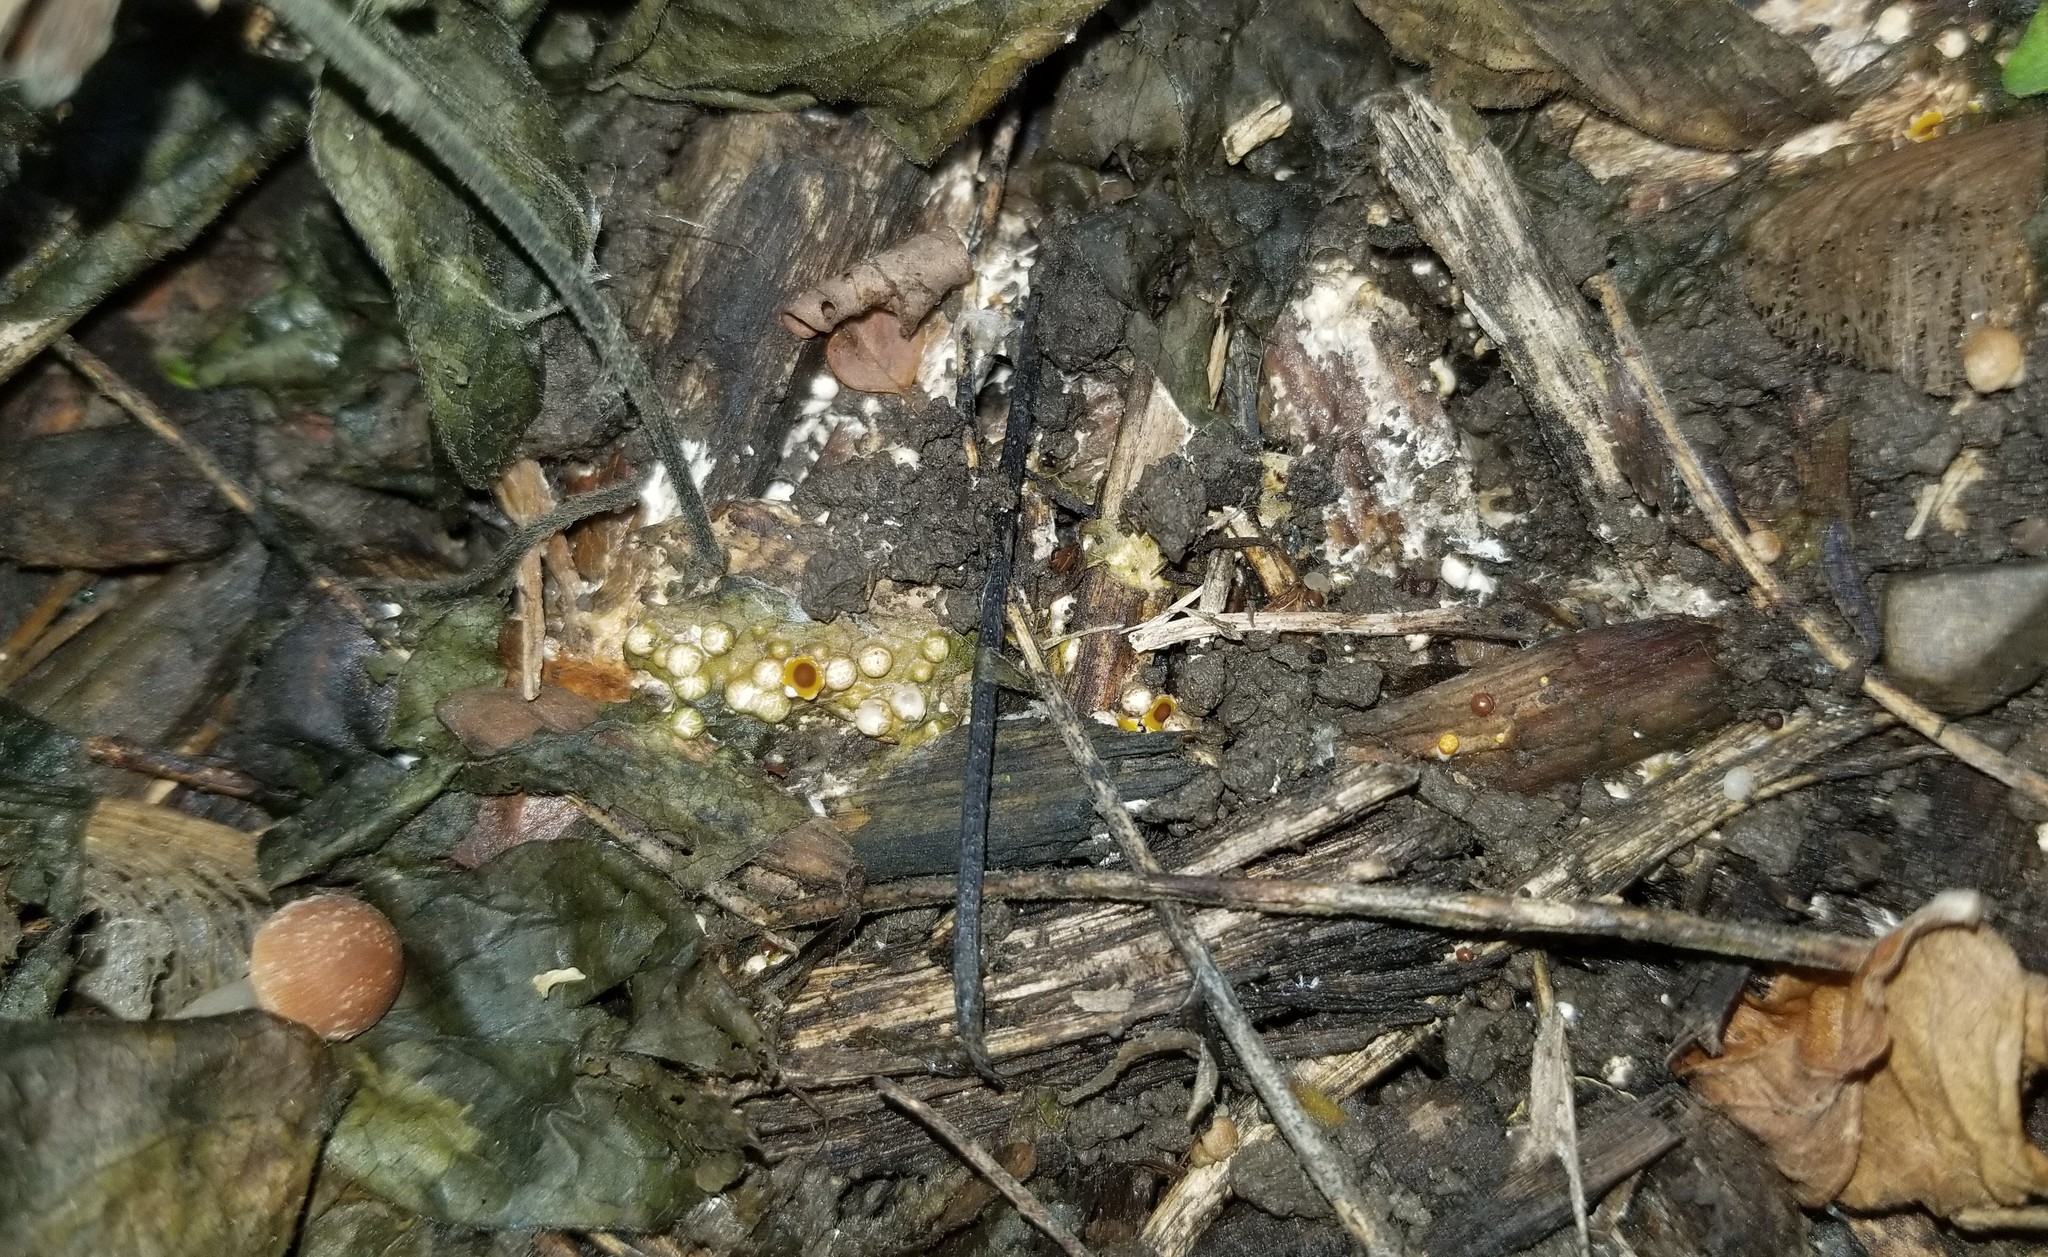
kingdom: Fungi
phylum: Basidiomycota
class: Agaricomycetes
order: Geastrales
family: Geastraceae
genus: Sphaerobolus
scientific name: Sphaerobolus stellatus
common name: Cannon fungus
